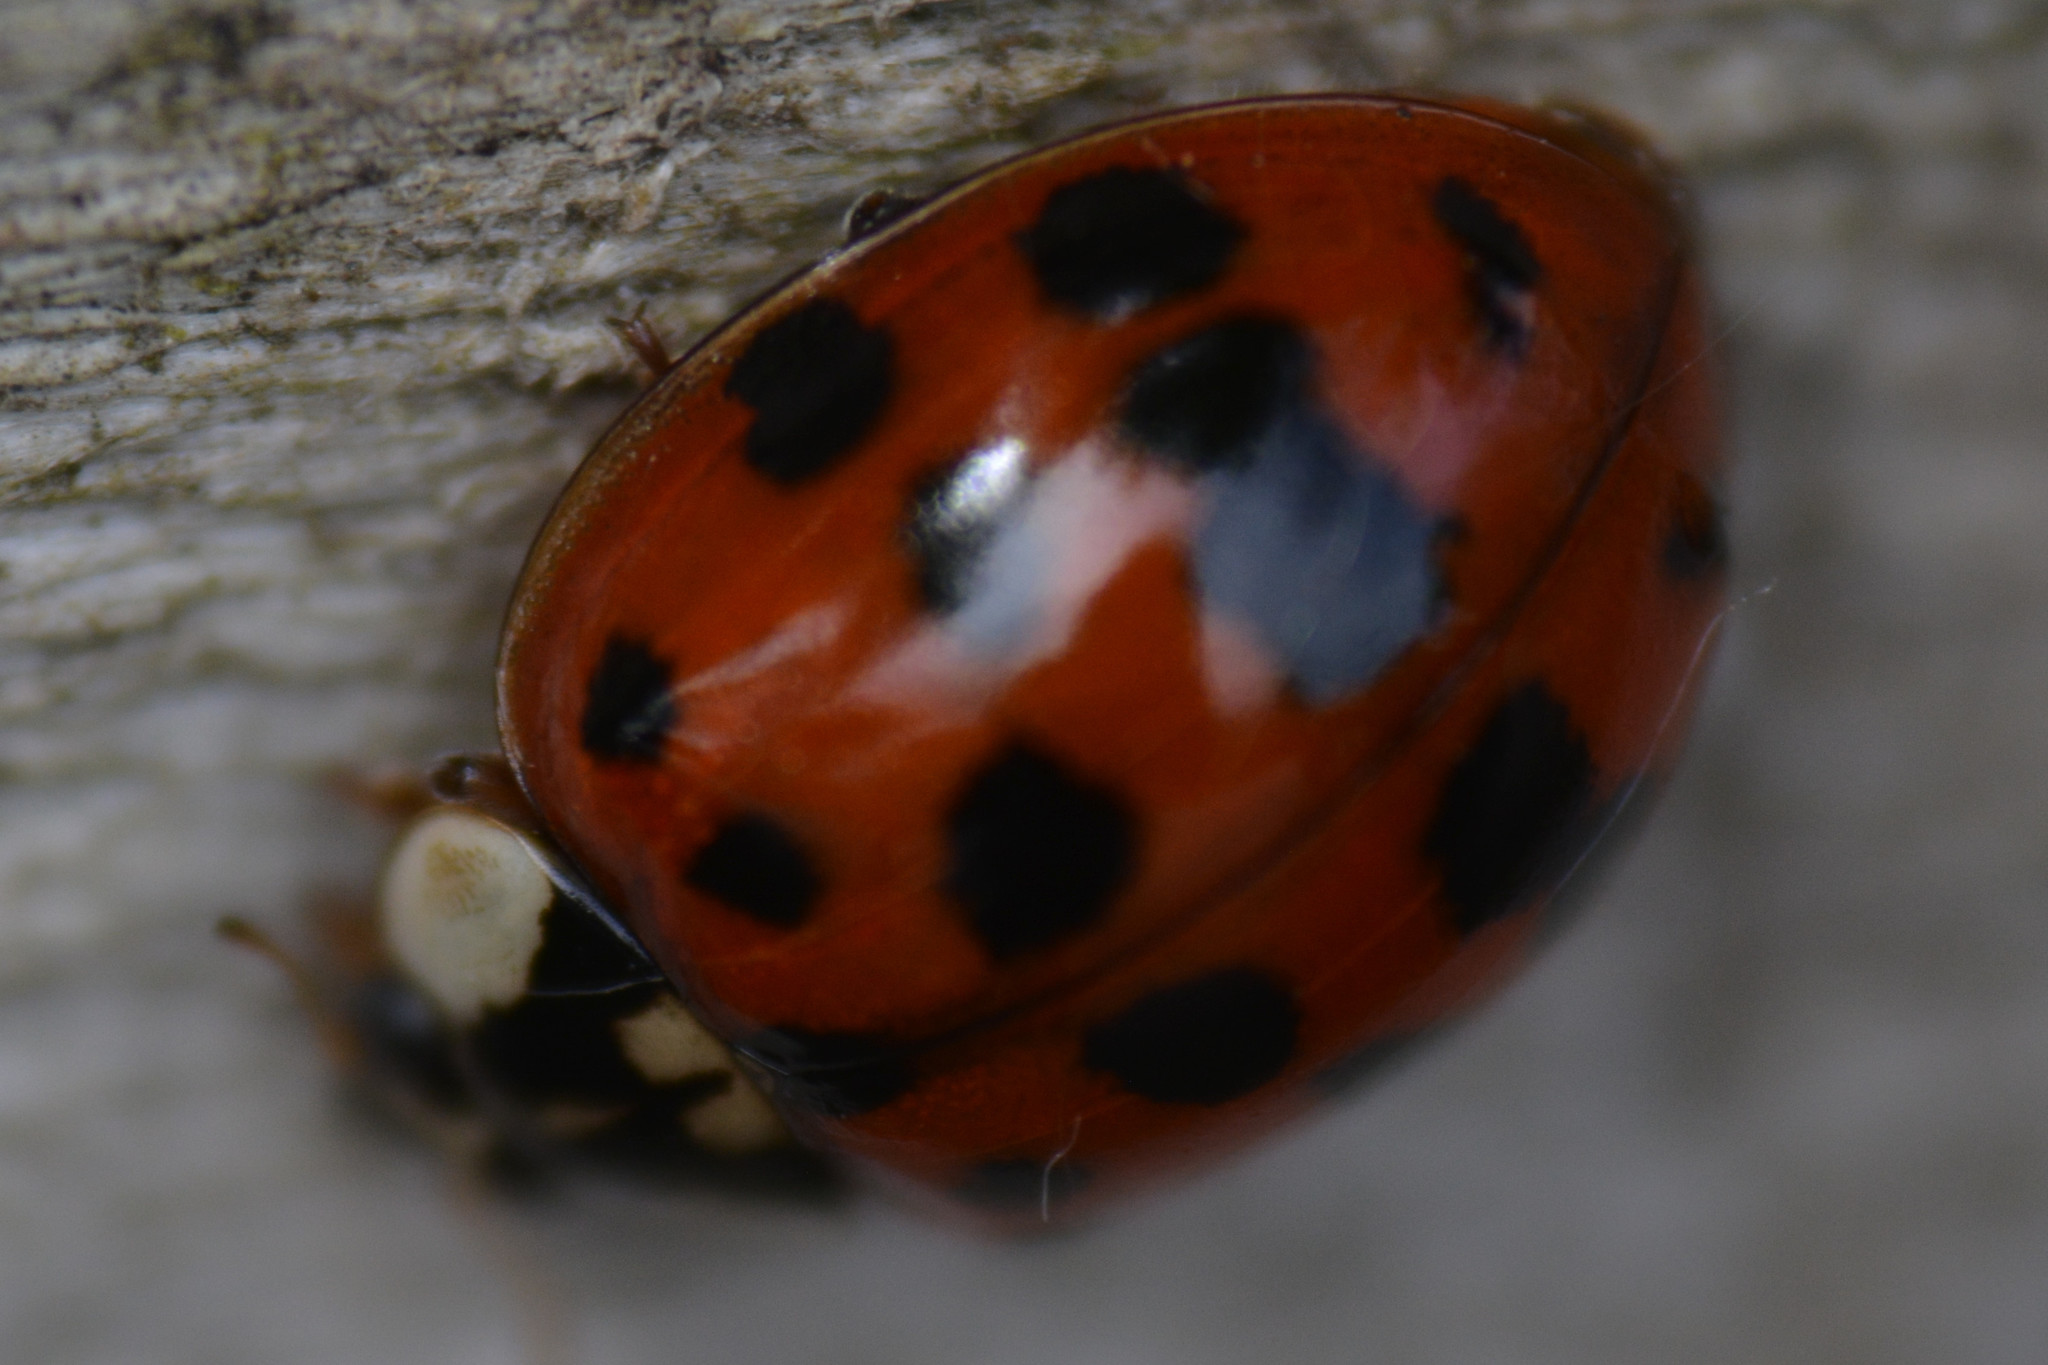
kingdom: Animalia
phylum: Arthropoda
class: Insecta
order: Coleoptera
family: Coccinellidae
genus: Harmonia
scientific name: Harmonia axyridis
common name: Harlequin ladybird
